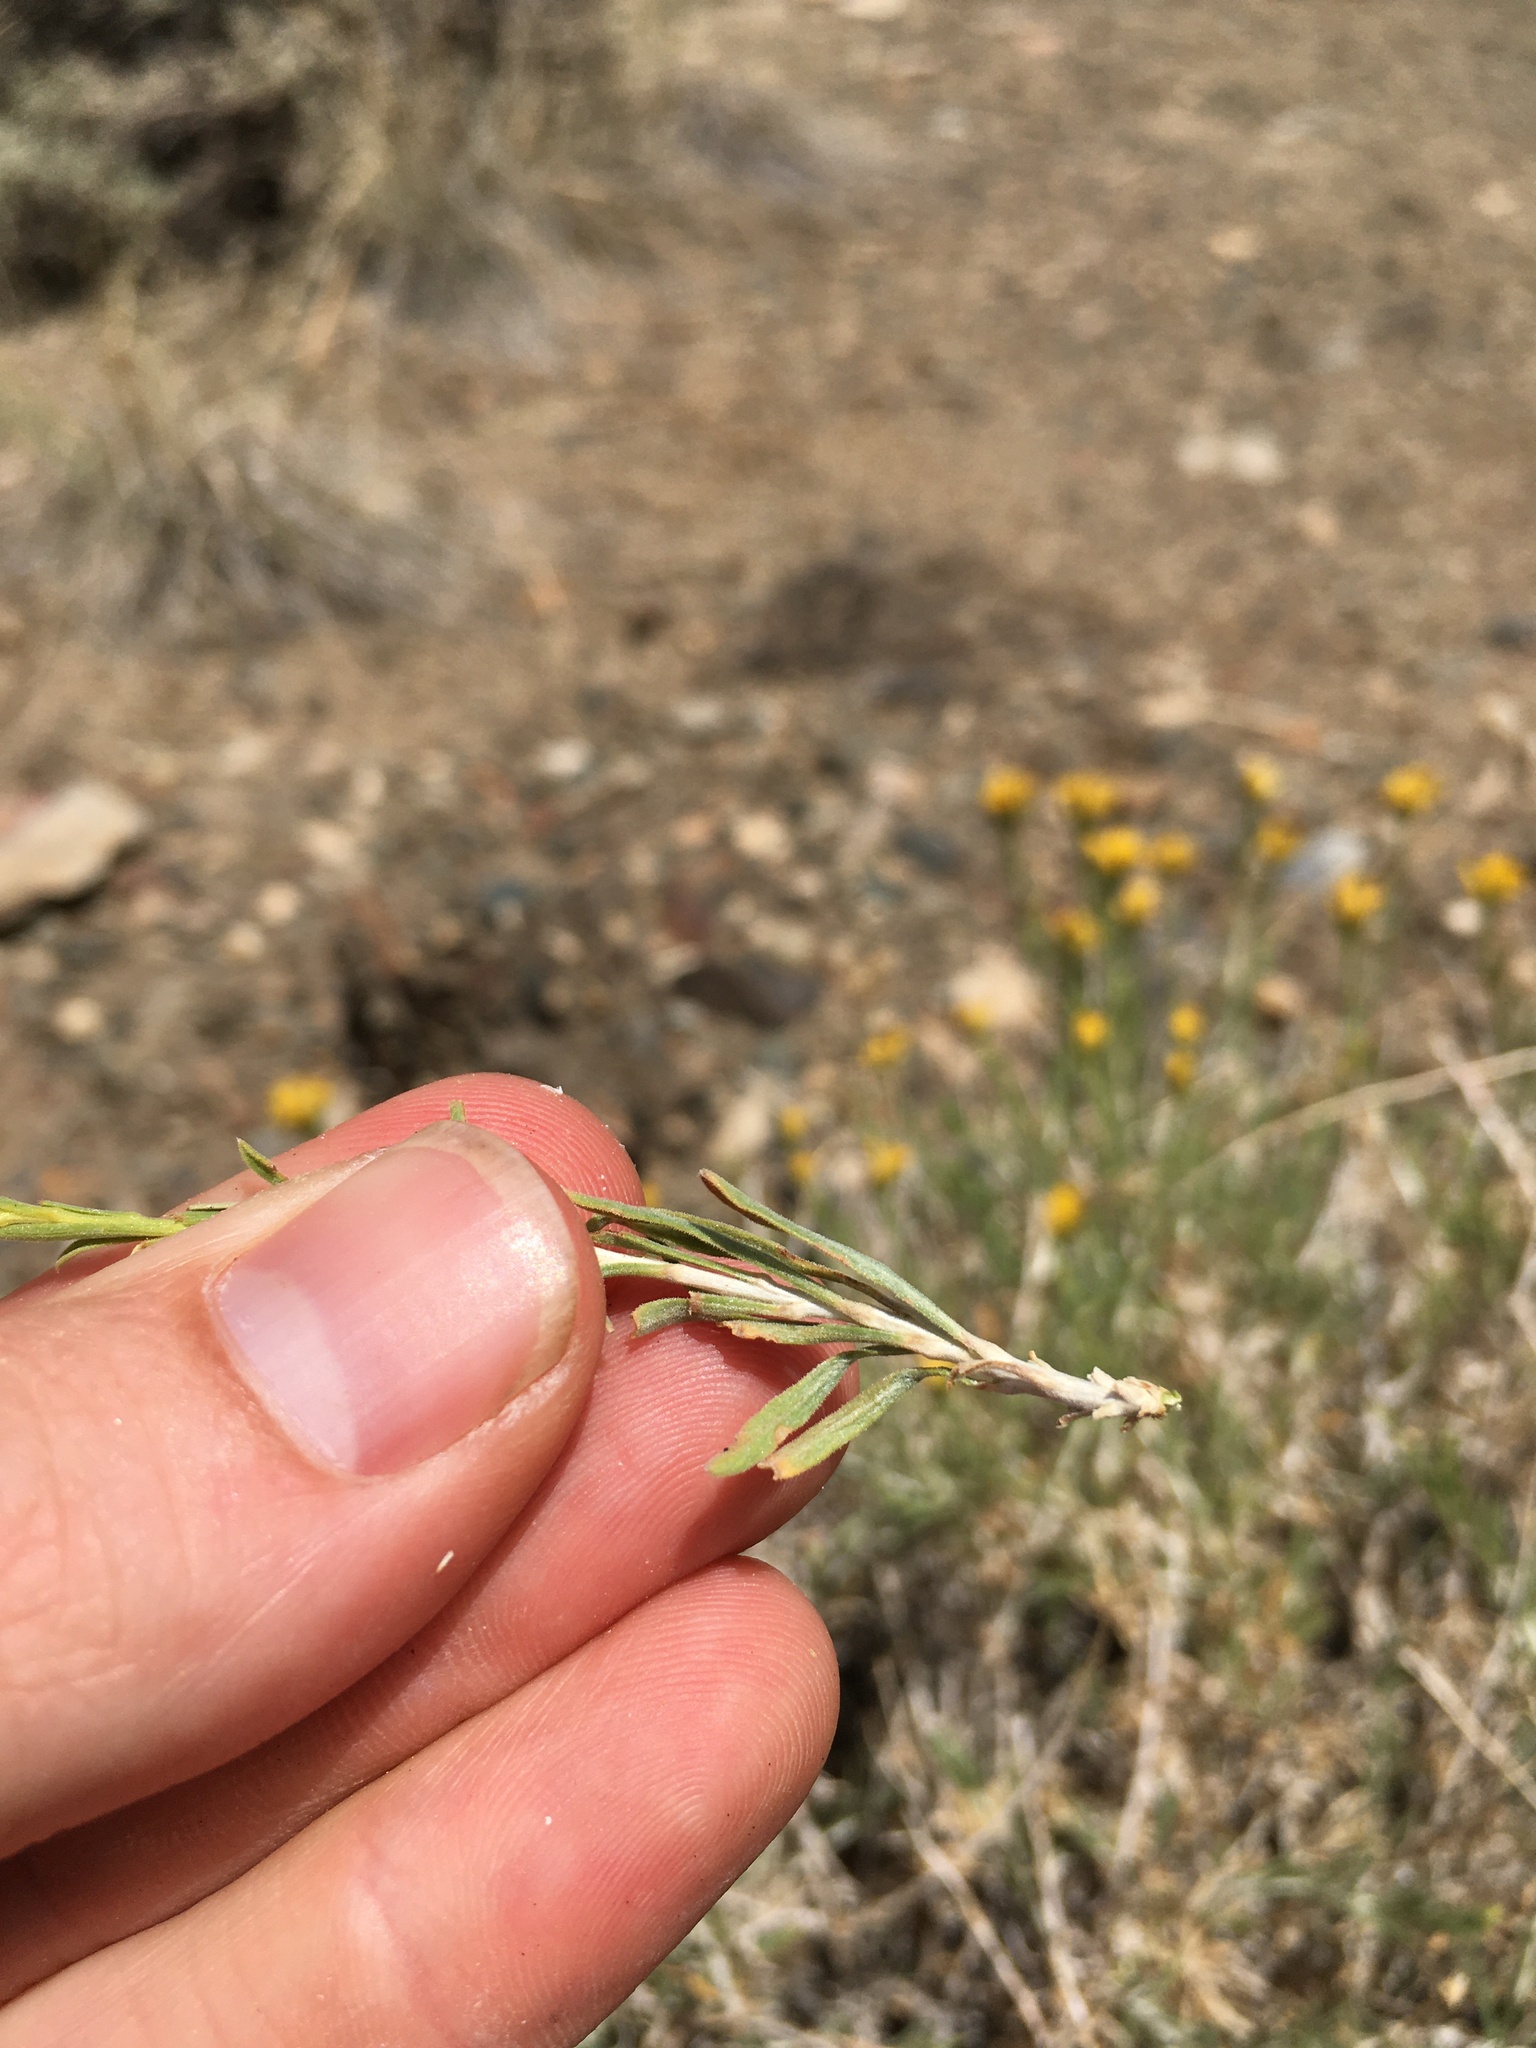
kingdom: Plantae
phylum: Tracheophyta
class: Magnoliopsida
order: Asterales
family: Asteraceae
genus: Chrysothamnus
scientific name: Chrysothamnus viscidiflorus
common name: Yellow rabbitbrush
